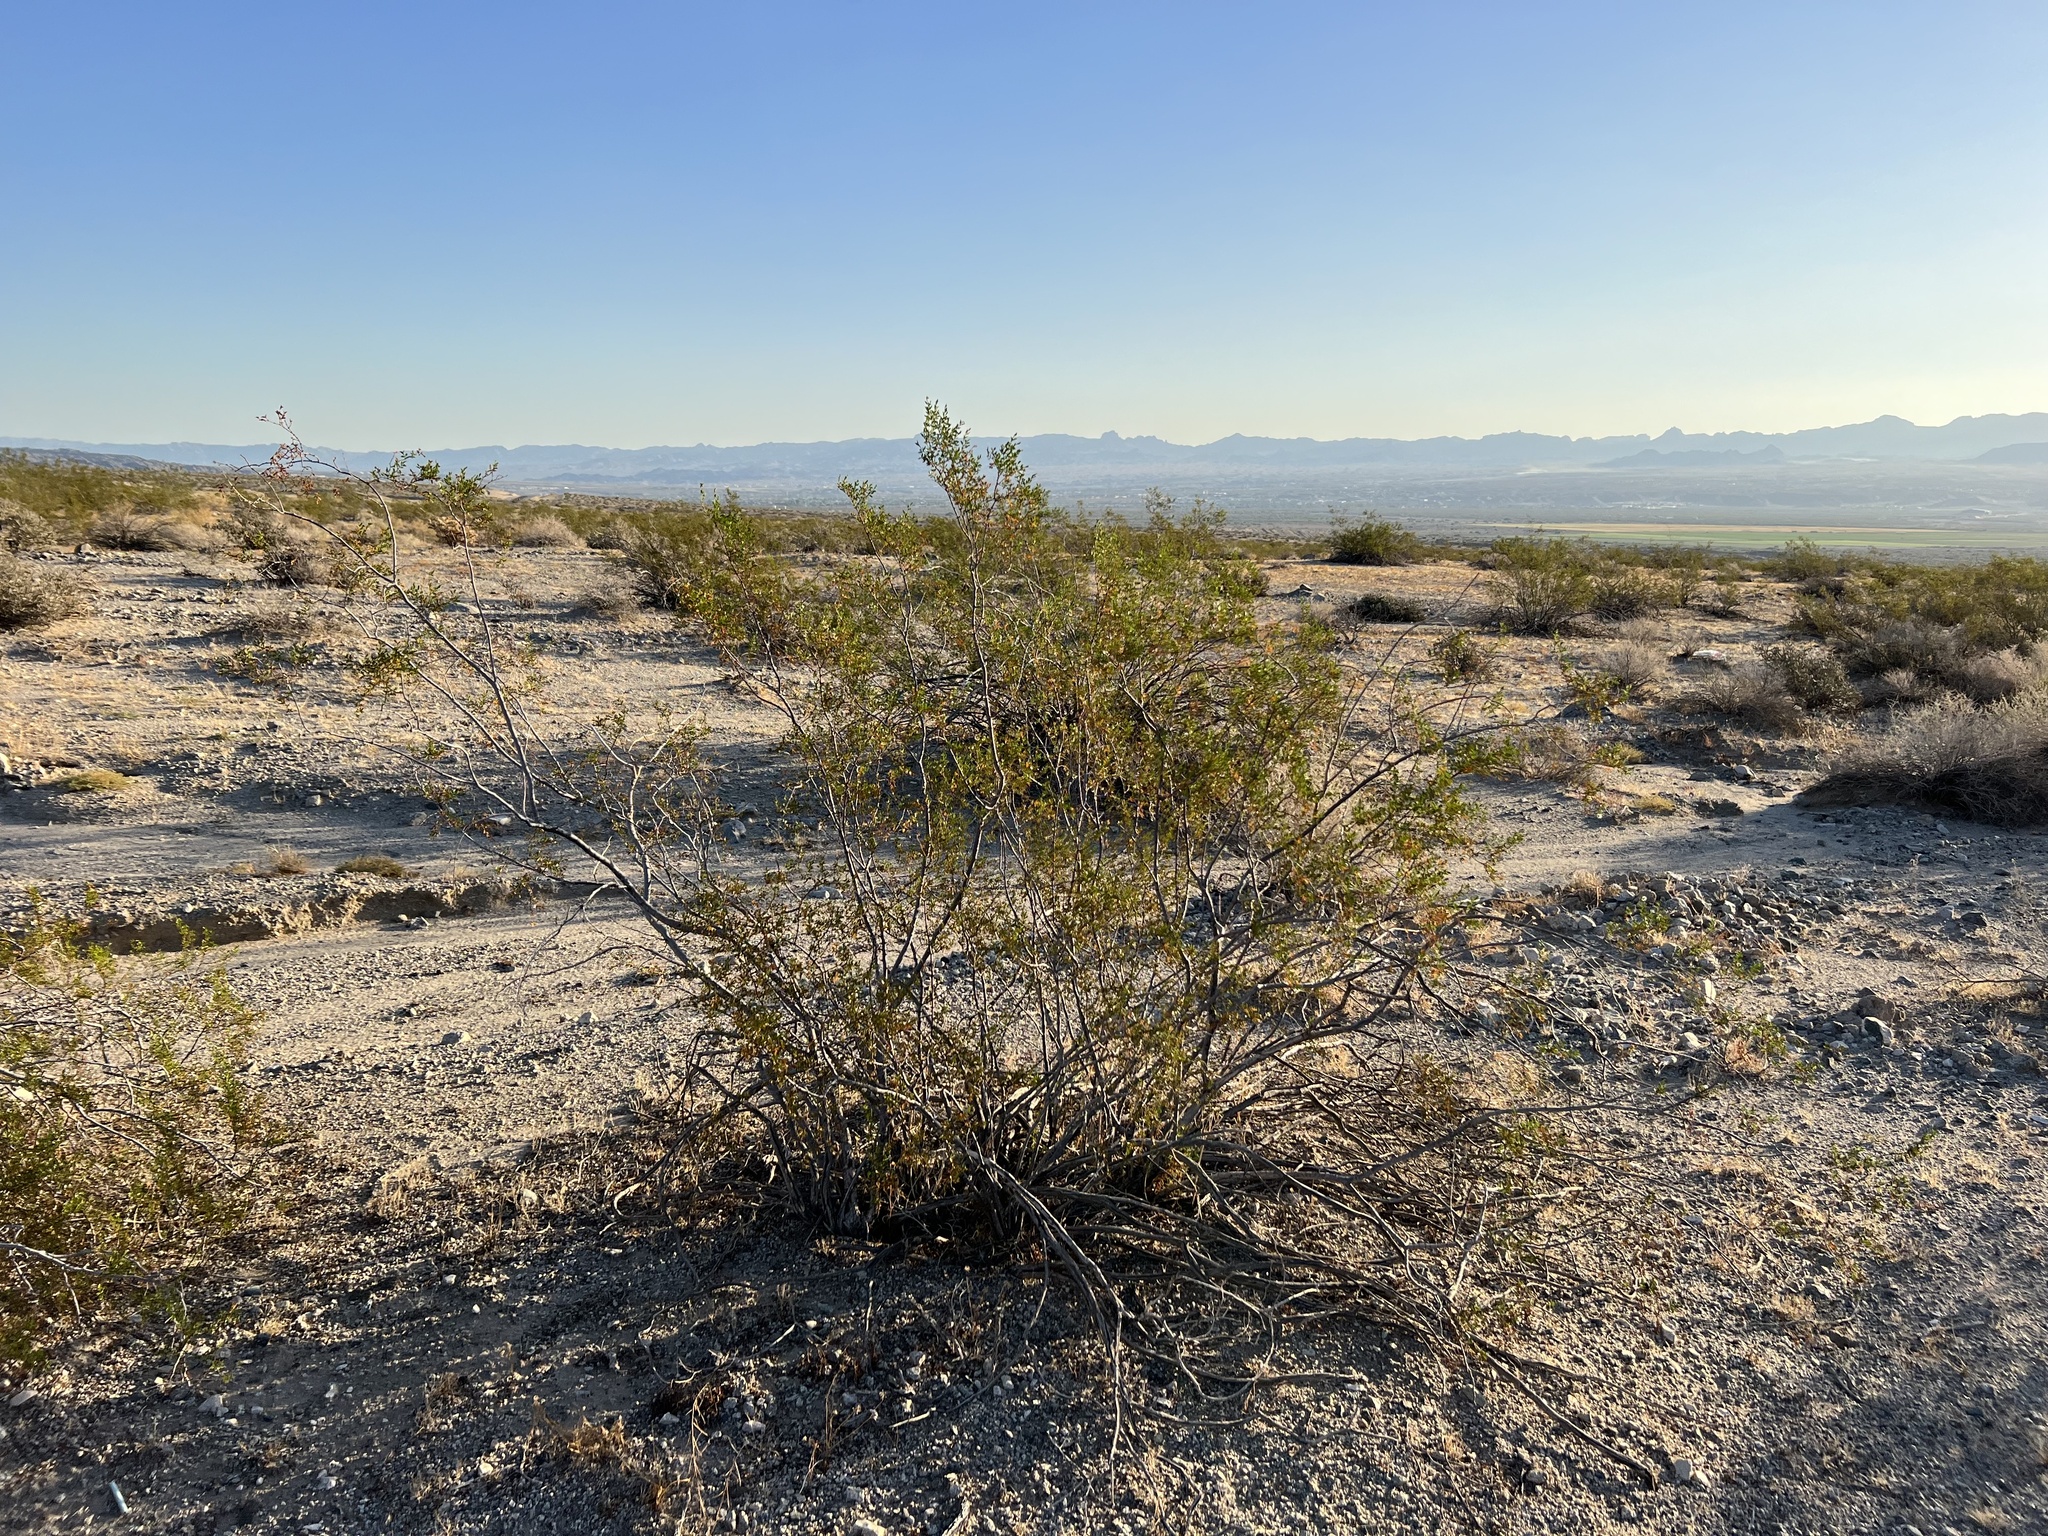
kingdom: Plantae
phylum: Tracheophyta
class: Magnoliopsida
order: Zygophyllales
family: Zygophyllaceae
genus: Larrea
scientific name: Larrea tridentata
